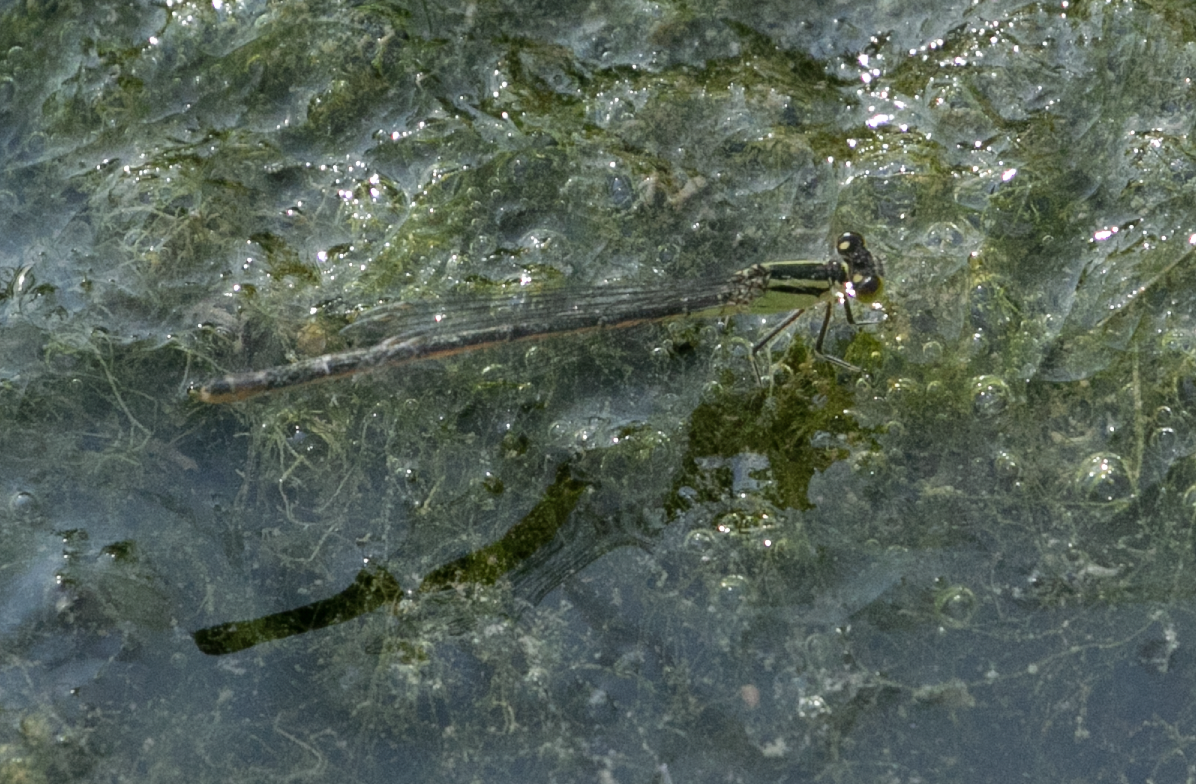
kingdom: Animalia
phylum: Arthropoda
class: Insecta
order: Odonata
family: Coenagrionidae
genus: Ischnura
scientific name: Ischnura elegans
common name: Blue-tailed damselfly
